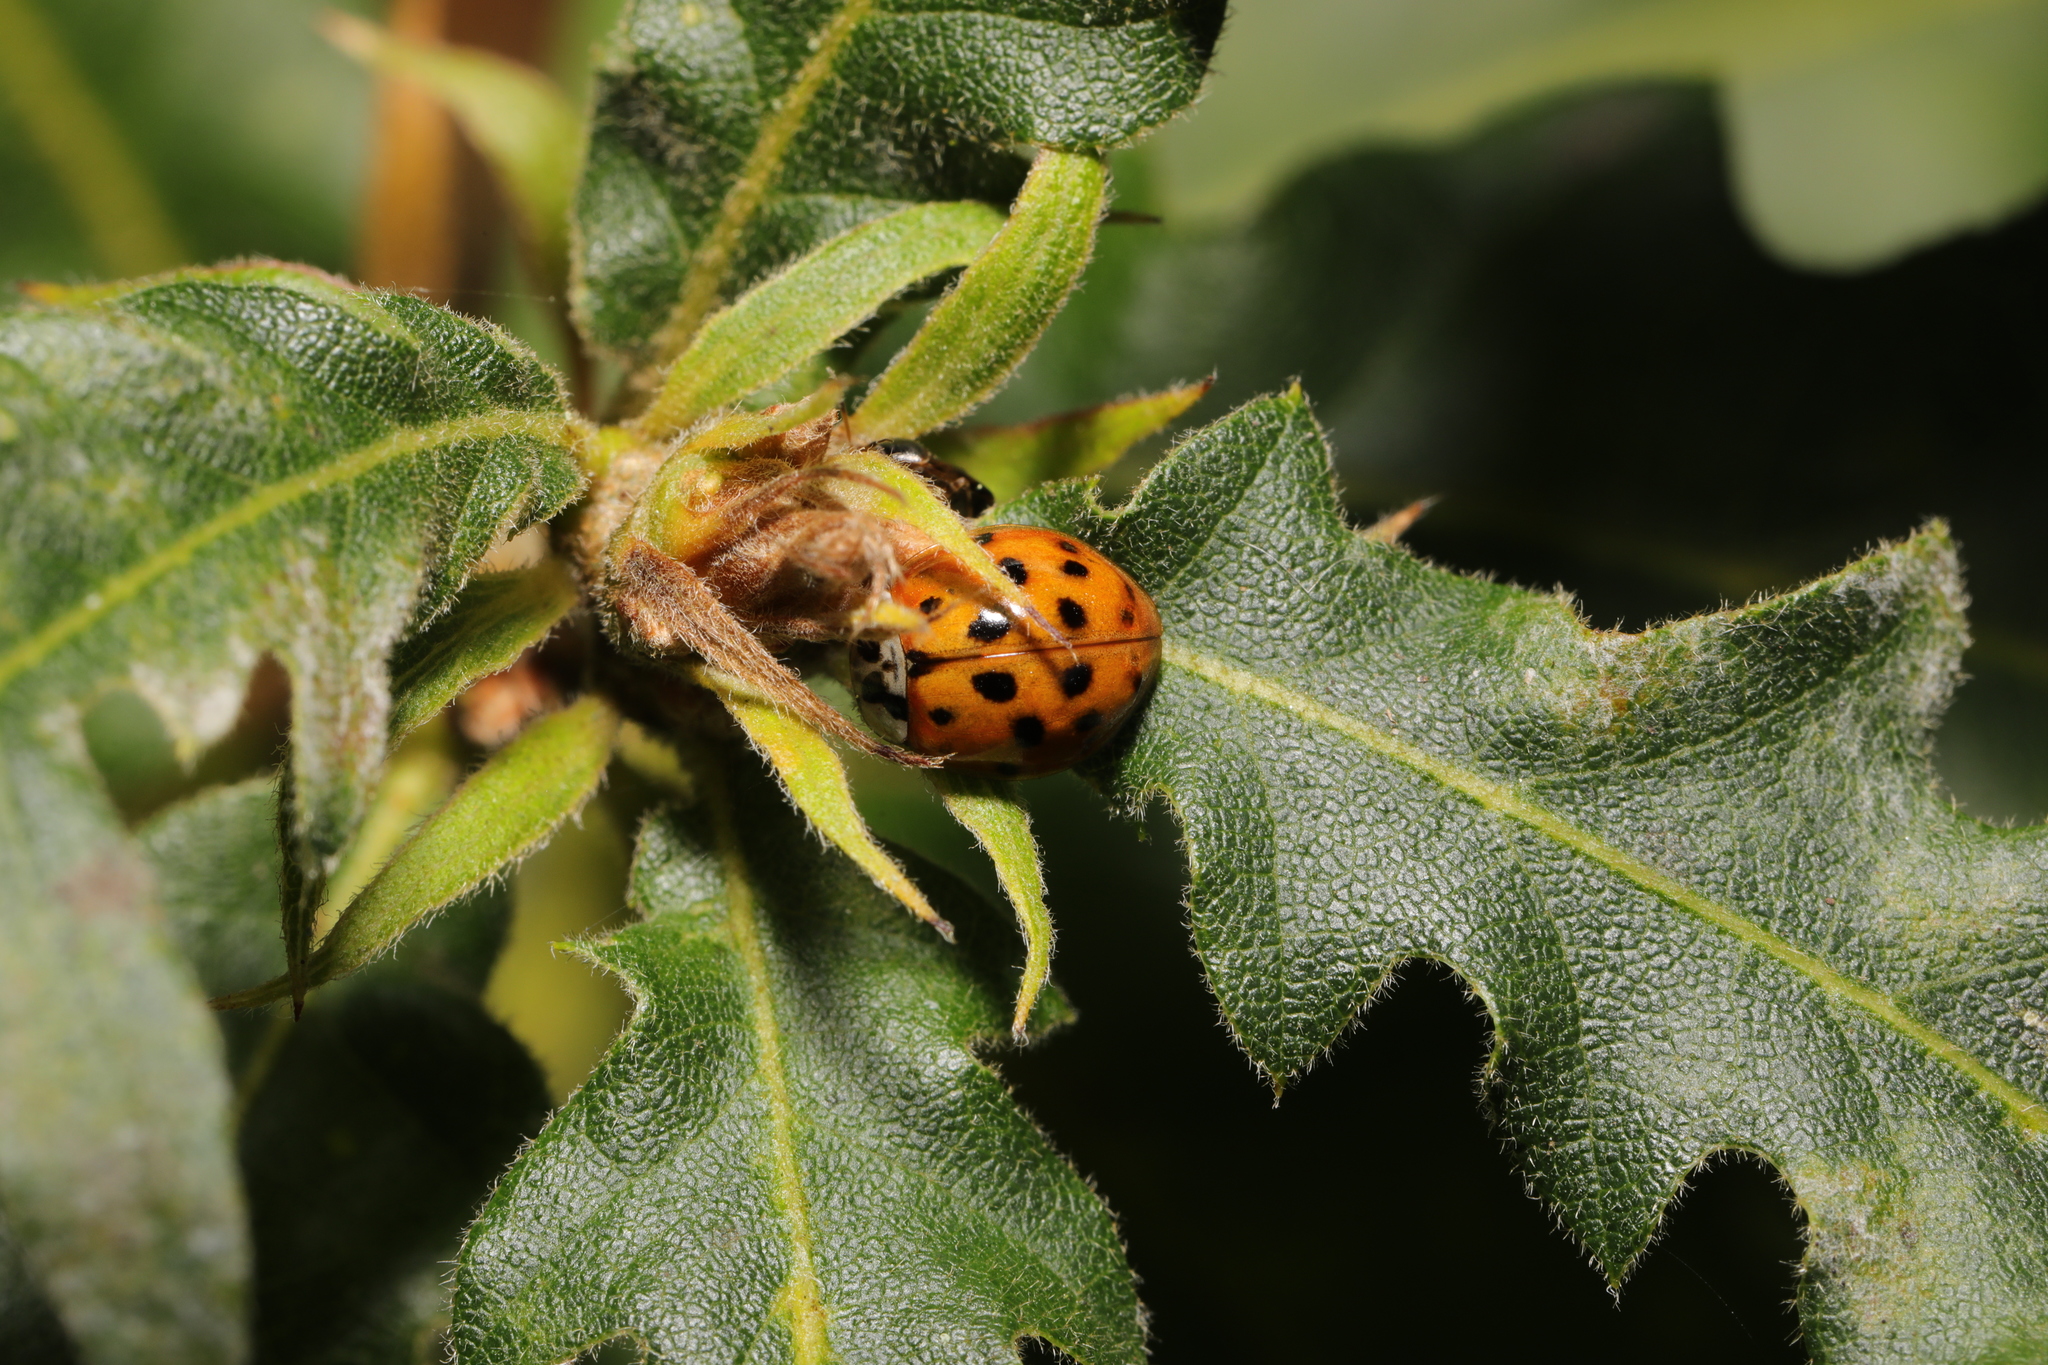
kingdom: Animalia
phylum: Arthropoda
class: Insecta
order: Coleoptera
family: Coccinellidae
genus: Harmonia
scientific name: Harmonia axyridis
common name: Harlequin ladybird
